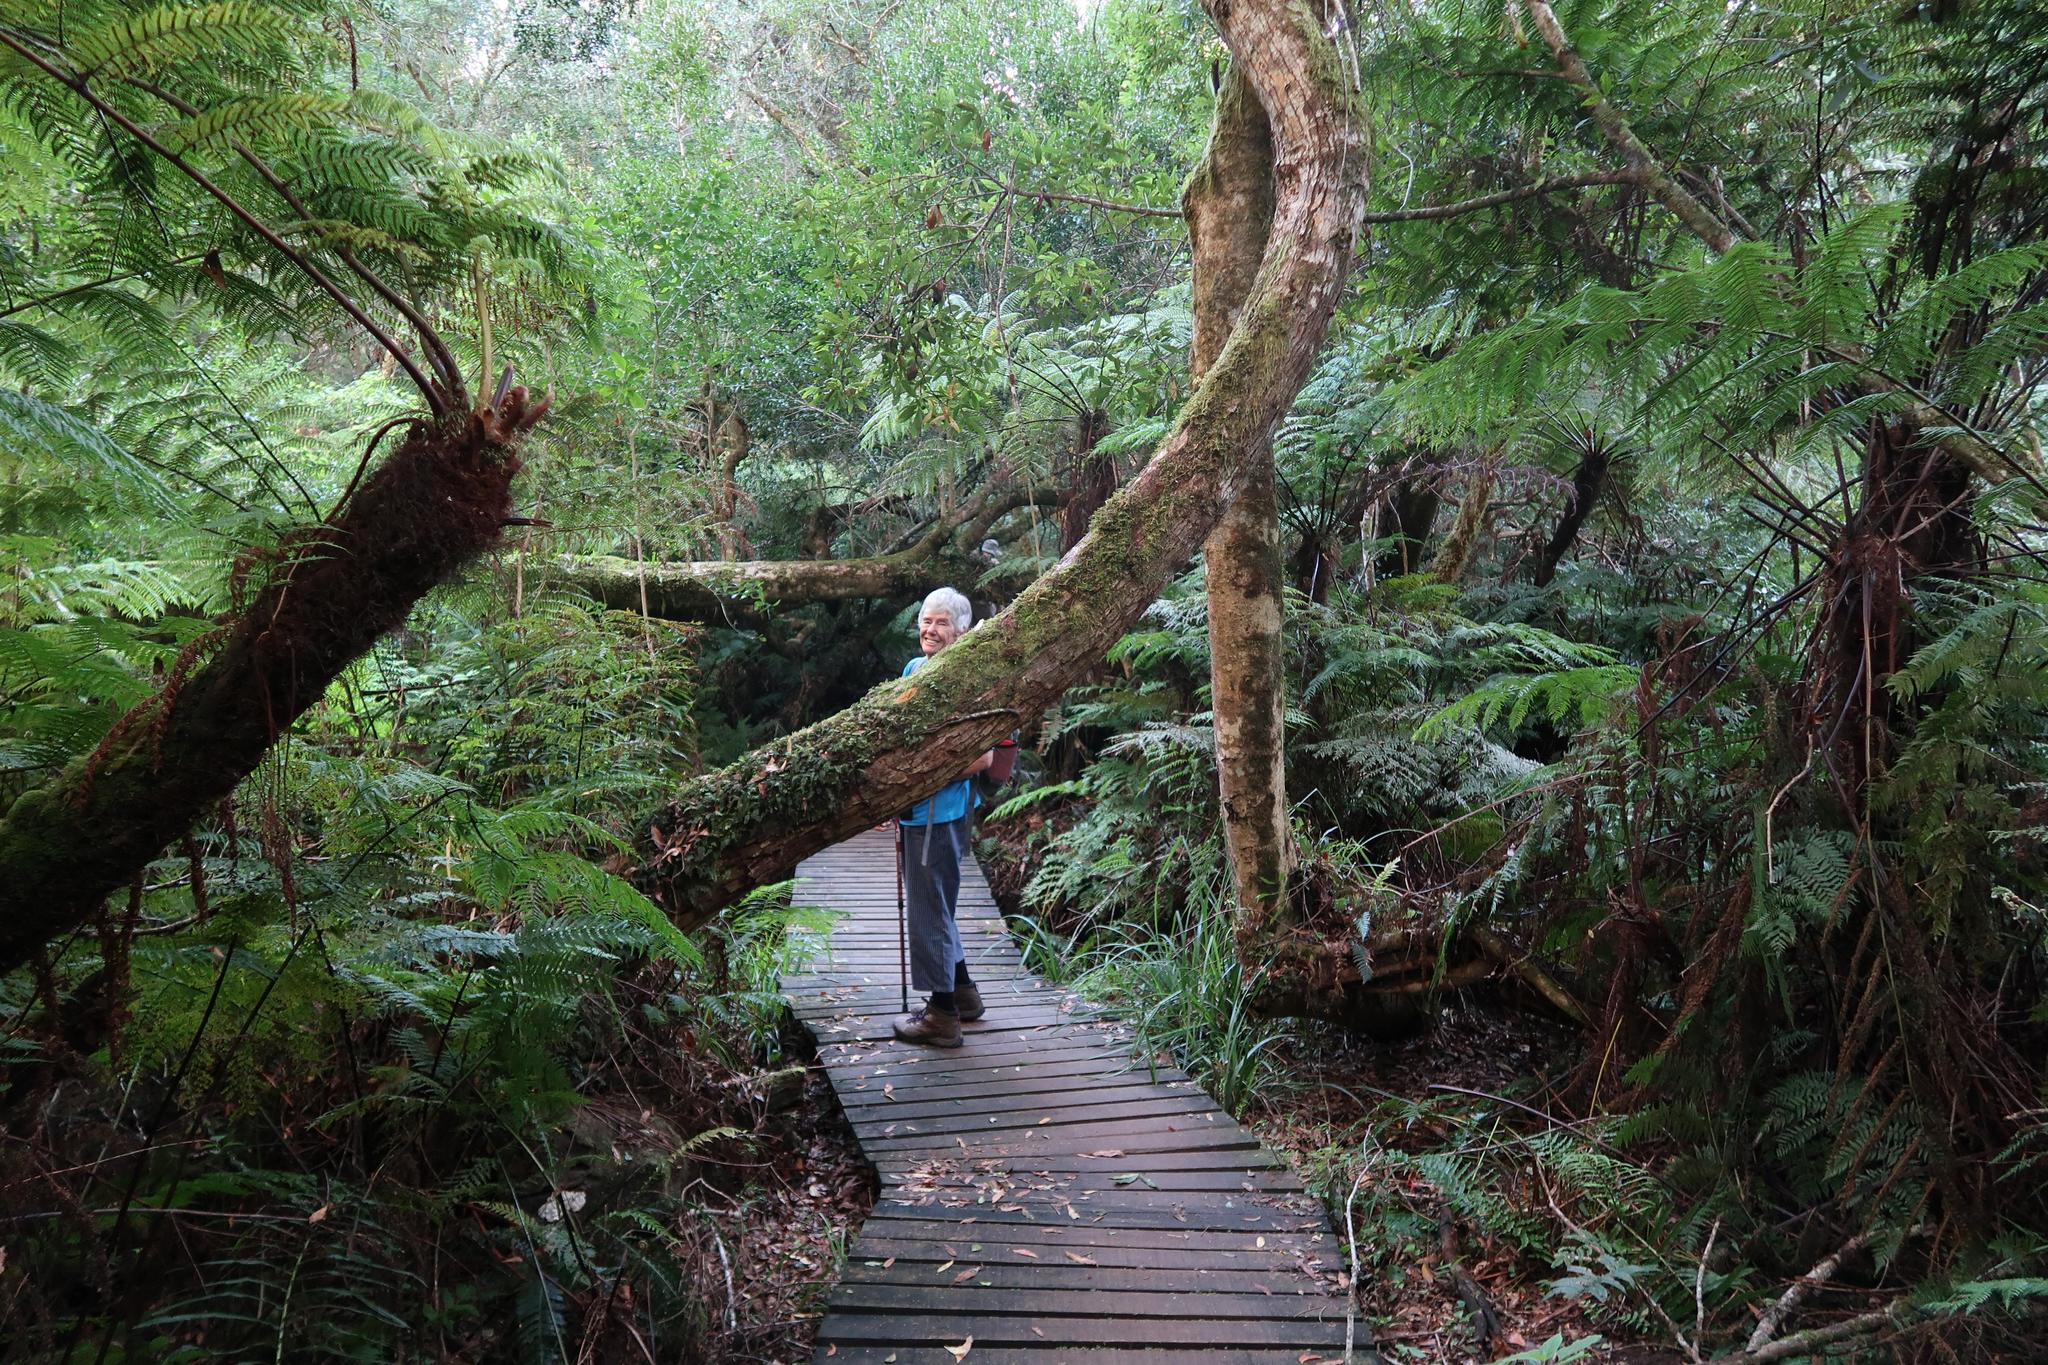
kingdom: Plantae
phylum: Tracheophyta
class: Polypodiopsida
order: Cyatheales
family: Cyatheaceae
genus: Gymnosphaera
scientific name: Gymnosphaera capensis
